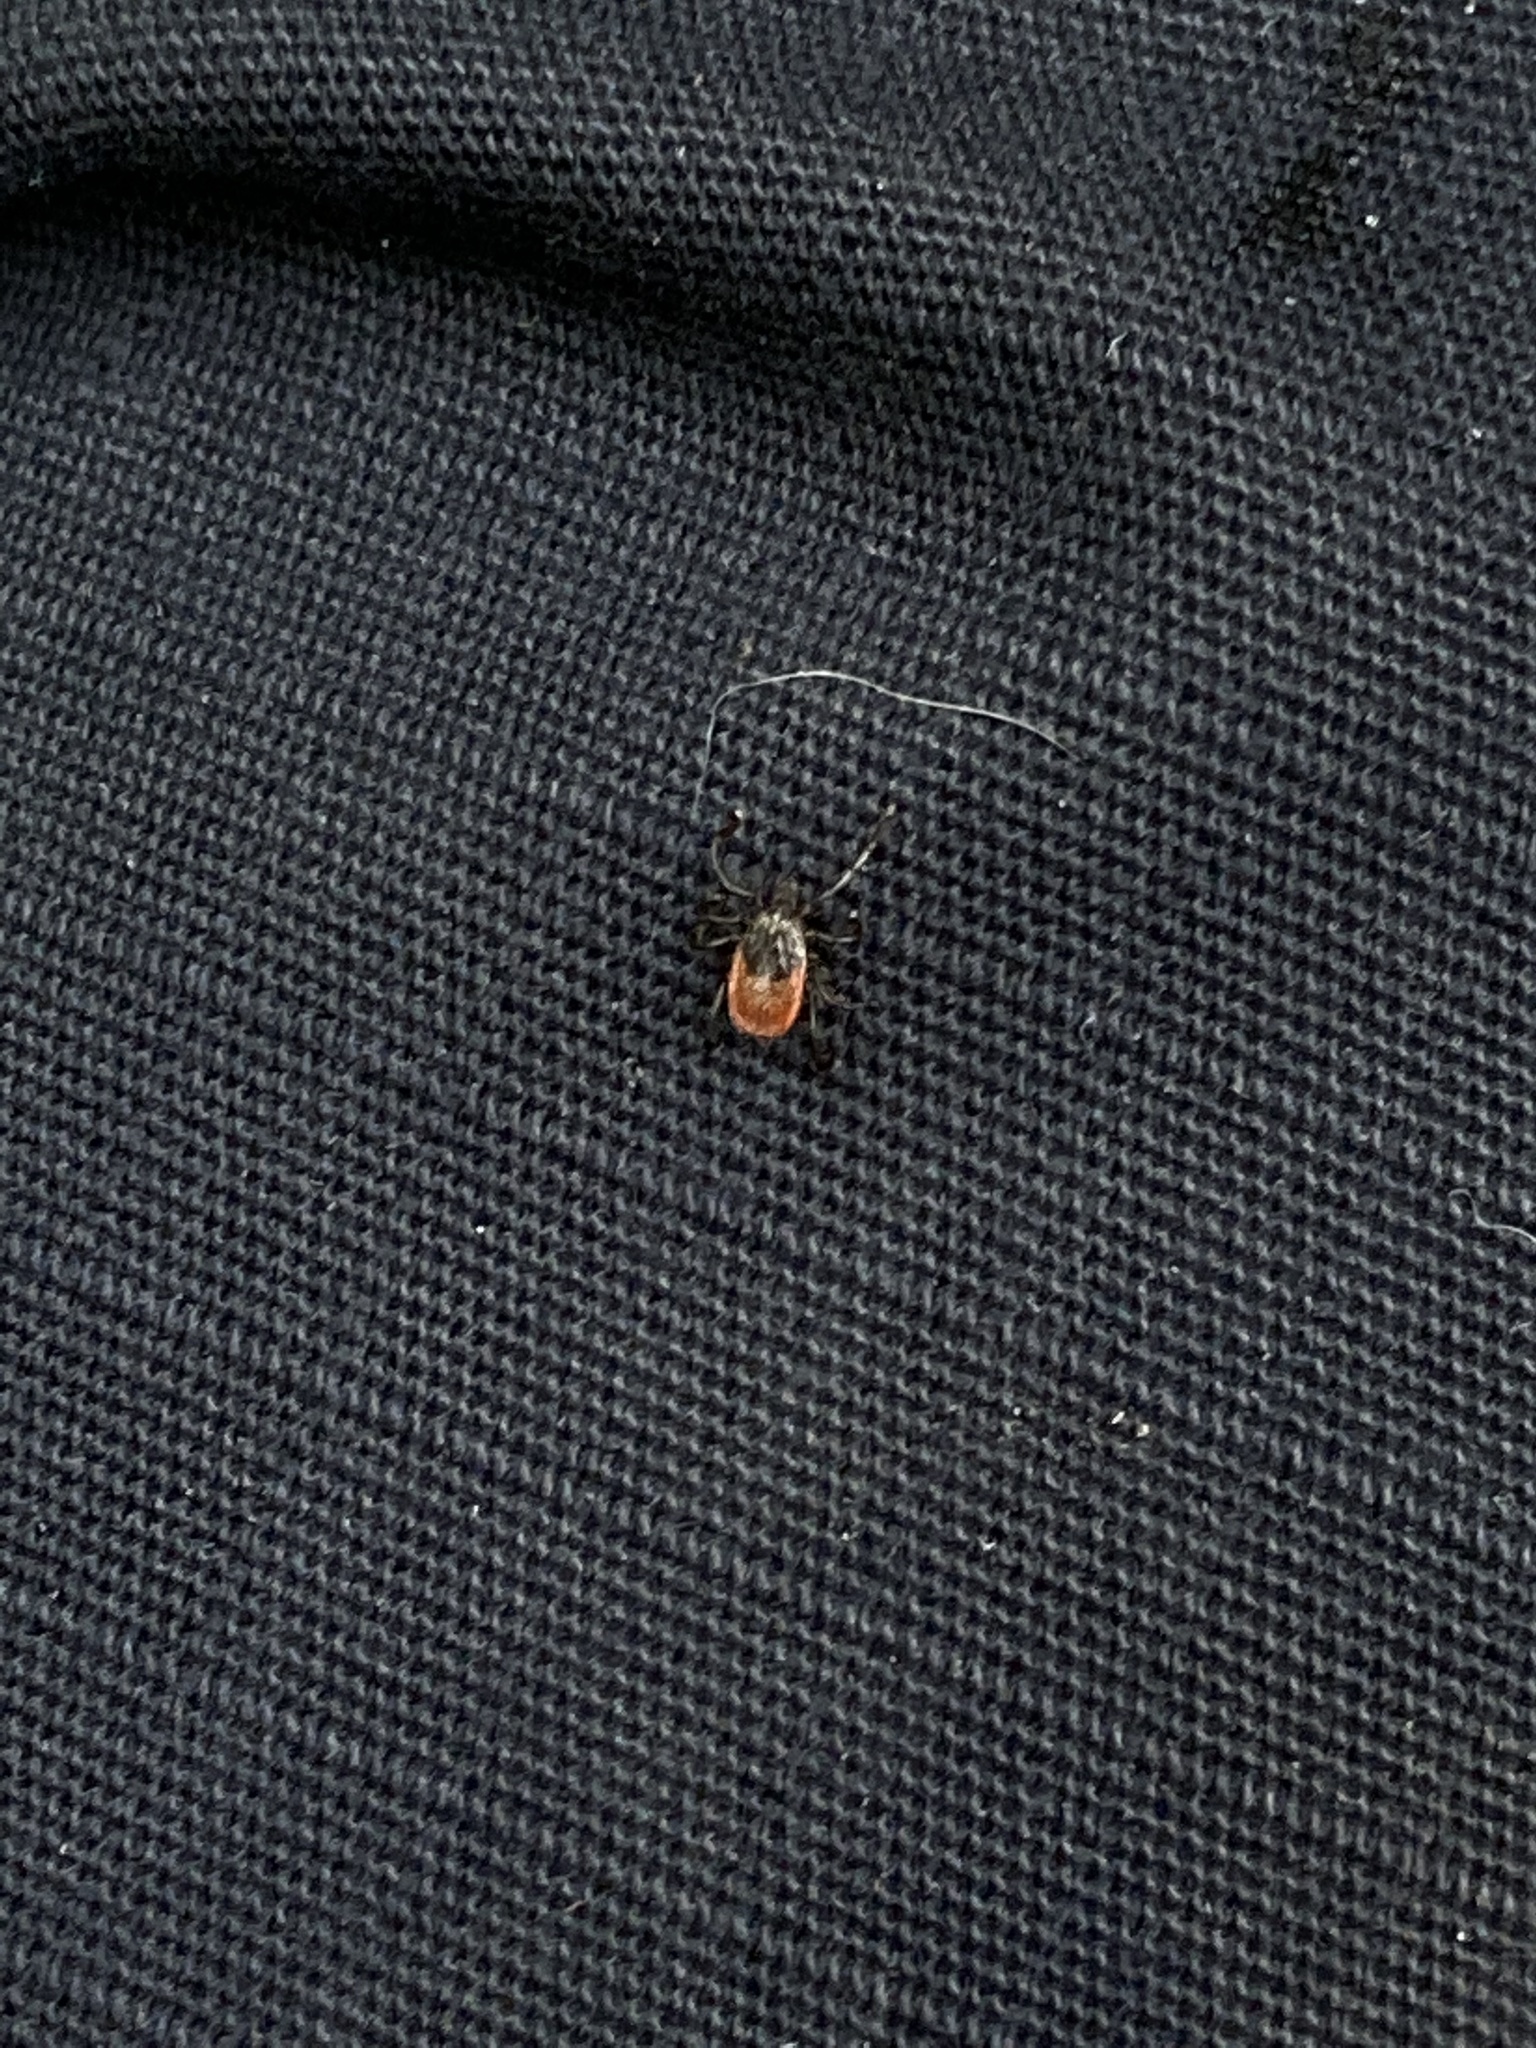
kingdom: Animalia
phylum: Arthropoda
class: Arachnida
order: Ixodida
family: Ixodidae
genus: Ixodes
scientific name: Ixodes pacificus
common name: California black-legged tick
